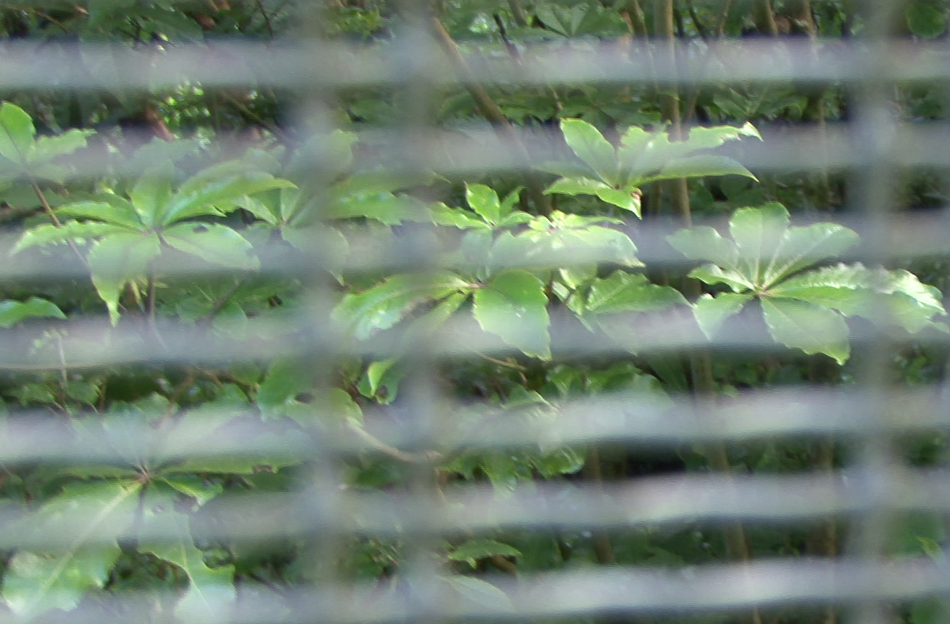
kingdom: Plantae
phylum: Tracheophyta
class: Magnoliopsida
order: Apiales
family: Araliaceae
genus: Schefflera
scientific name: Schefflera digitata
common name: Pate
